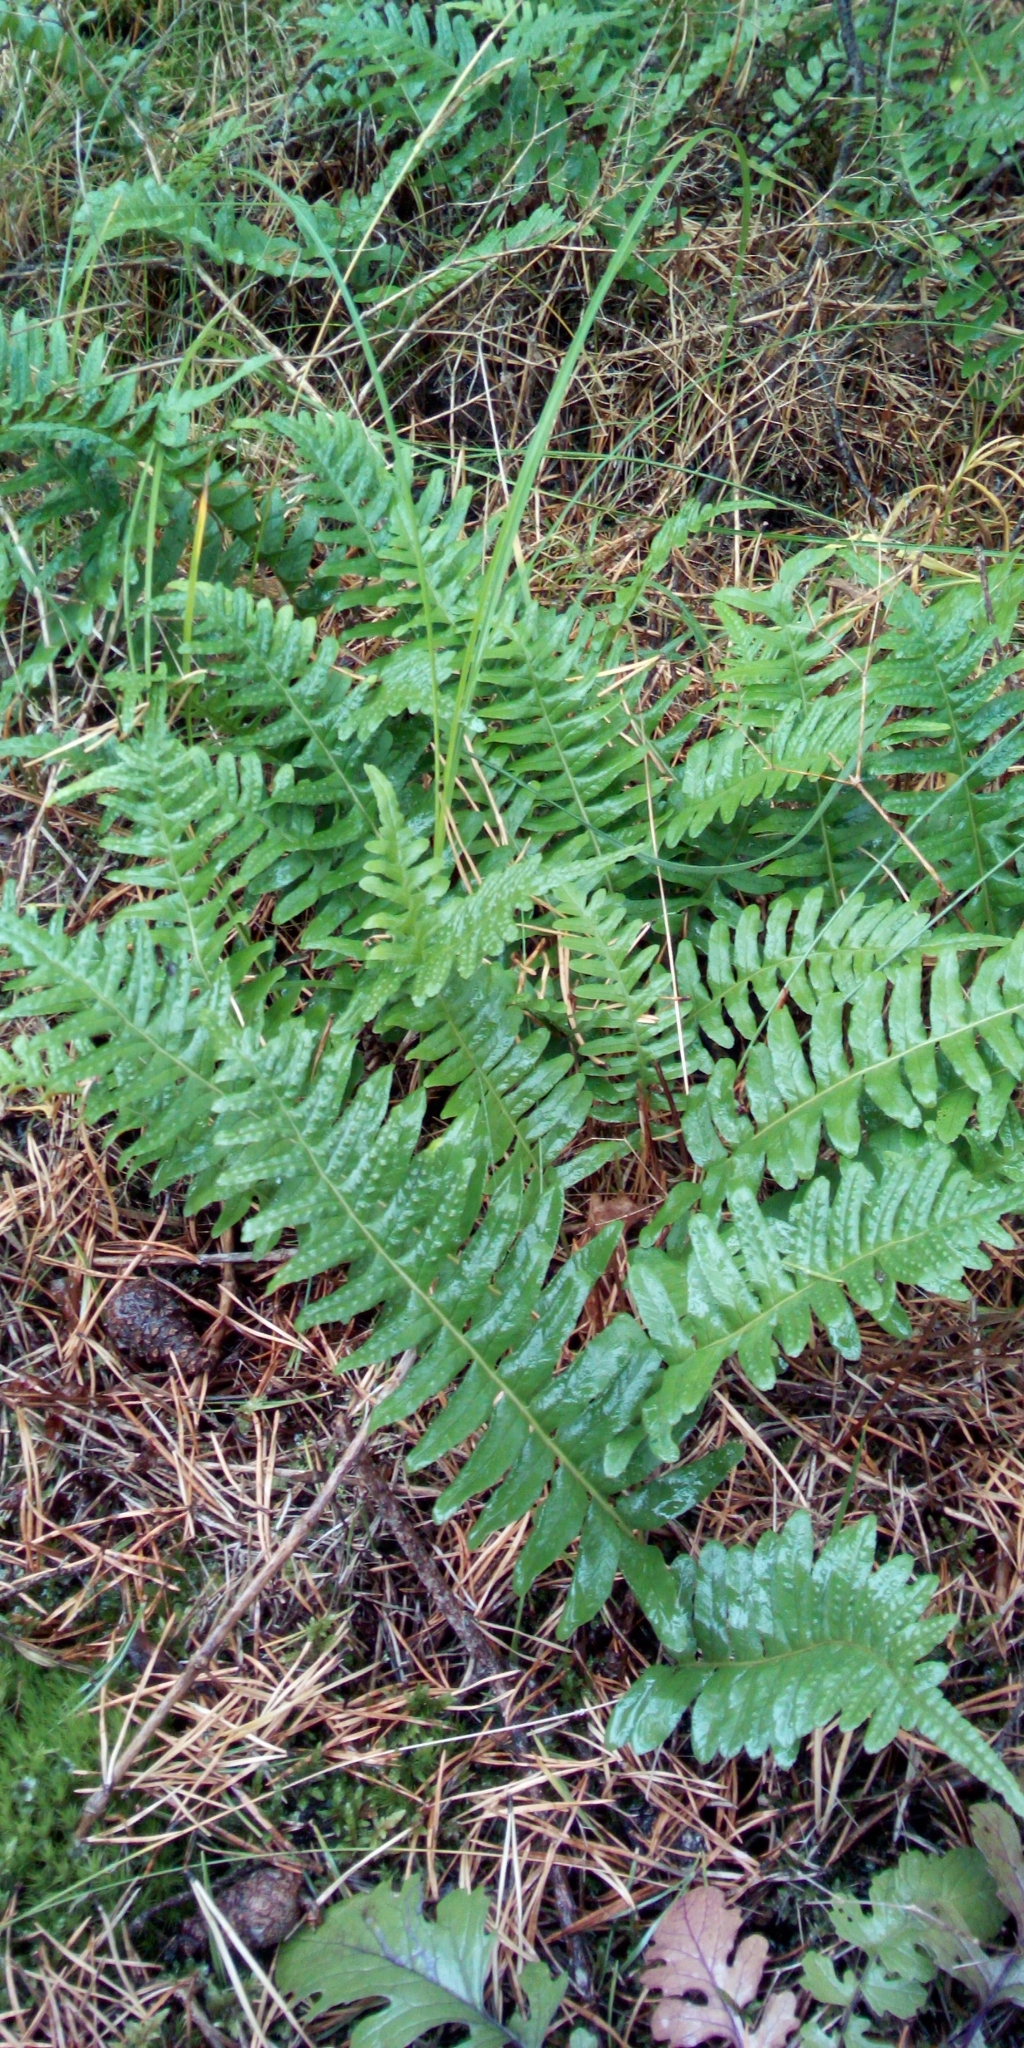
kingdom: Plantae
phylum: Tracheophyta
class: Polypodiopsida
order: Polypodiales
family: Polypodiaceae
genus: Polypodium
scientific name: Polypodium vulgare
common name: Common polypody
